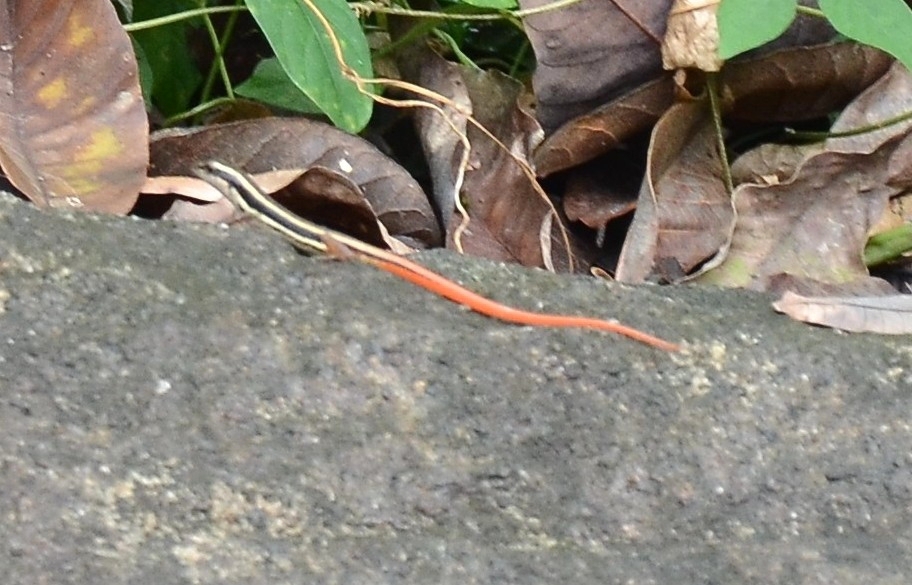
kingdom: Animalia
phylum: Chordata
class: Squamata
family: Scincidae
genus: Sphenomorphus
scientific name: Sphenomorphus dussumieri
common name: Dussumier's forest skink
